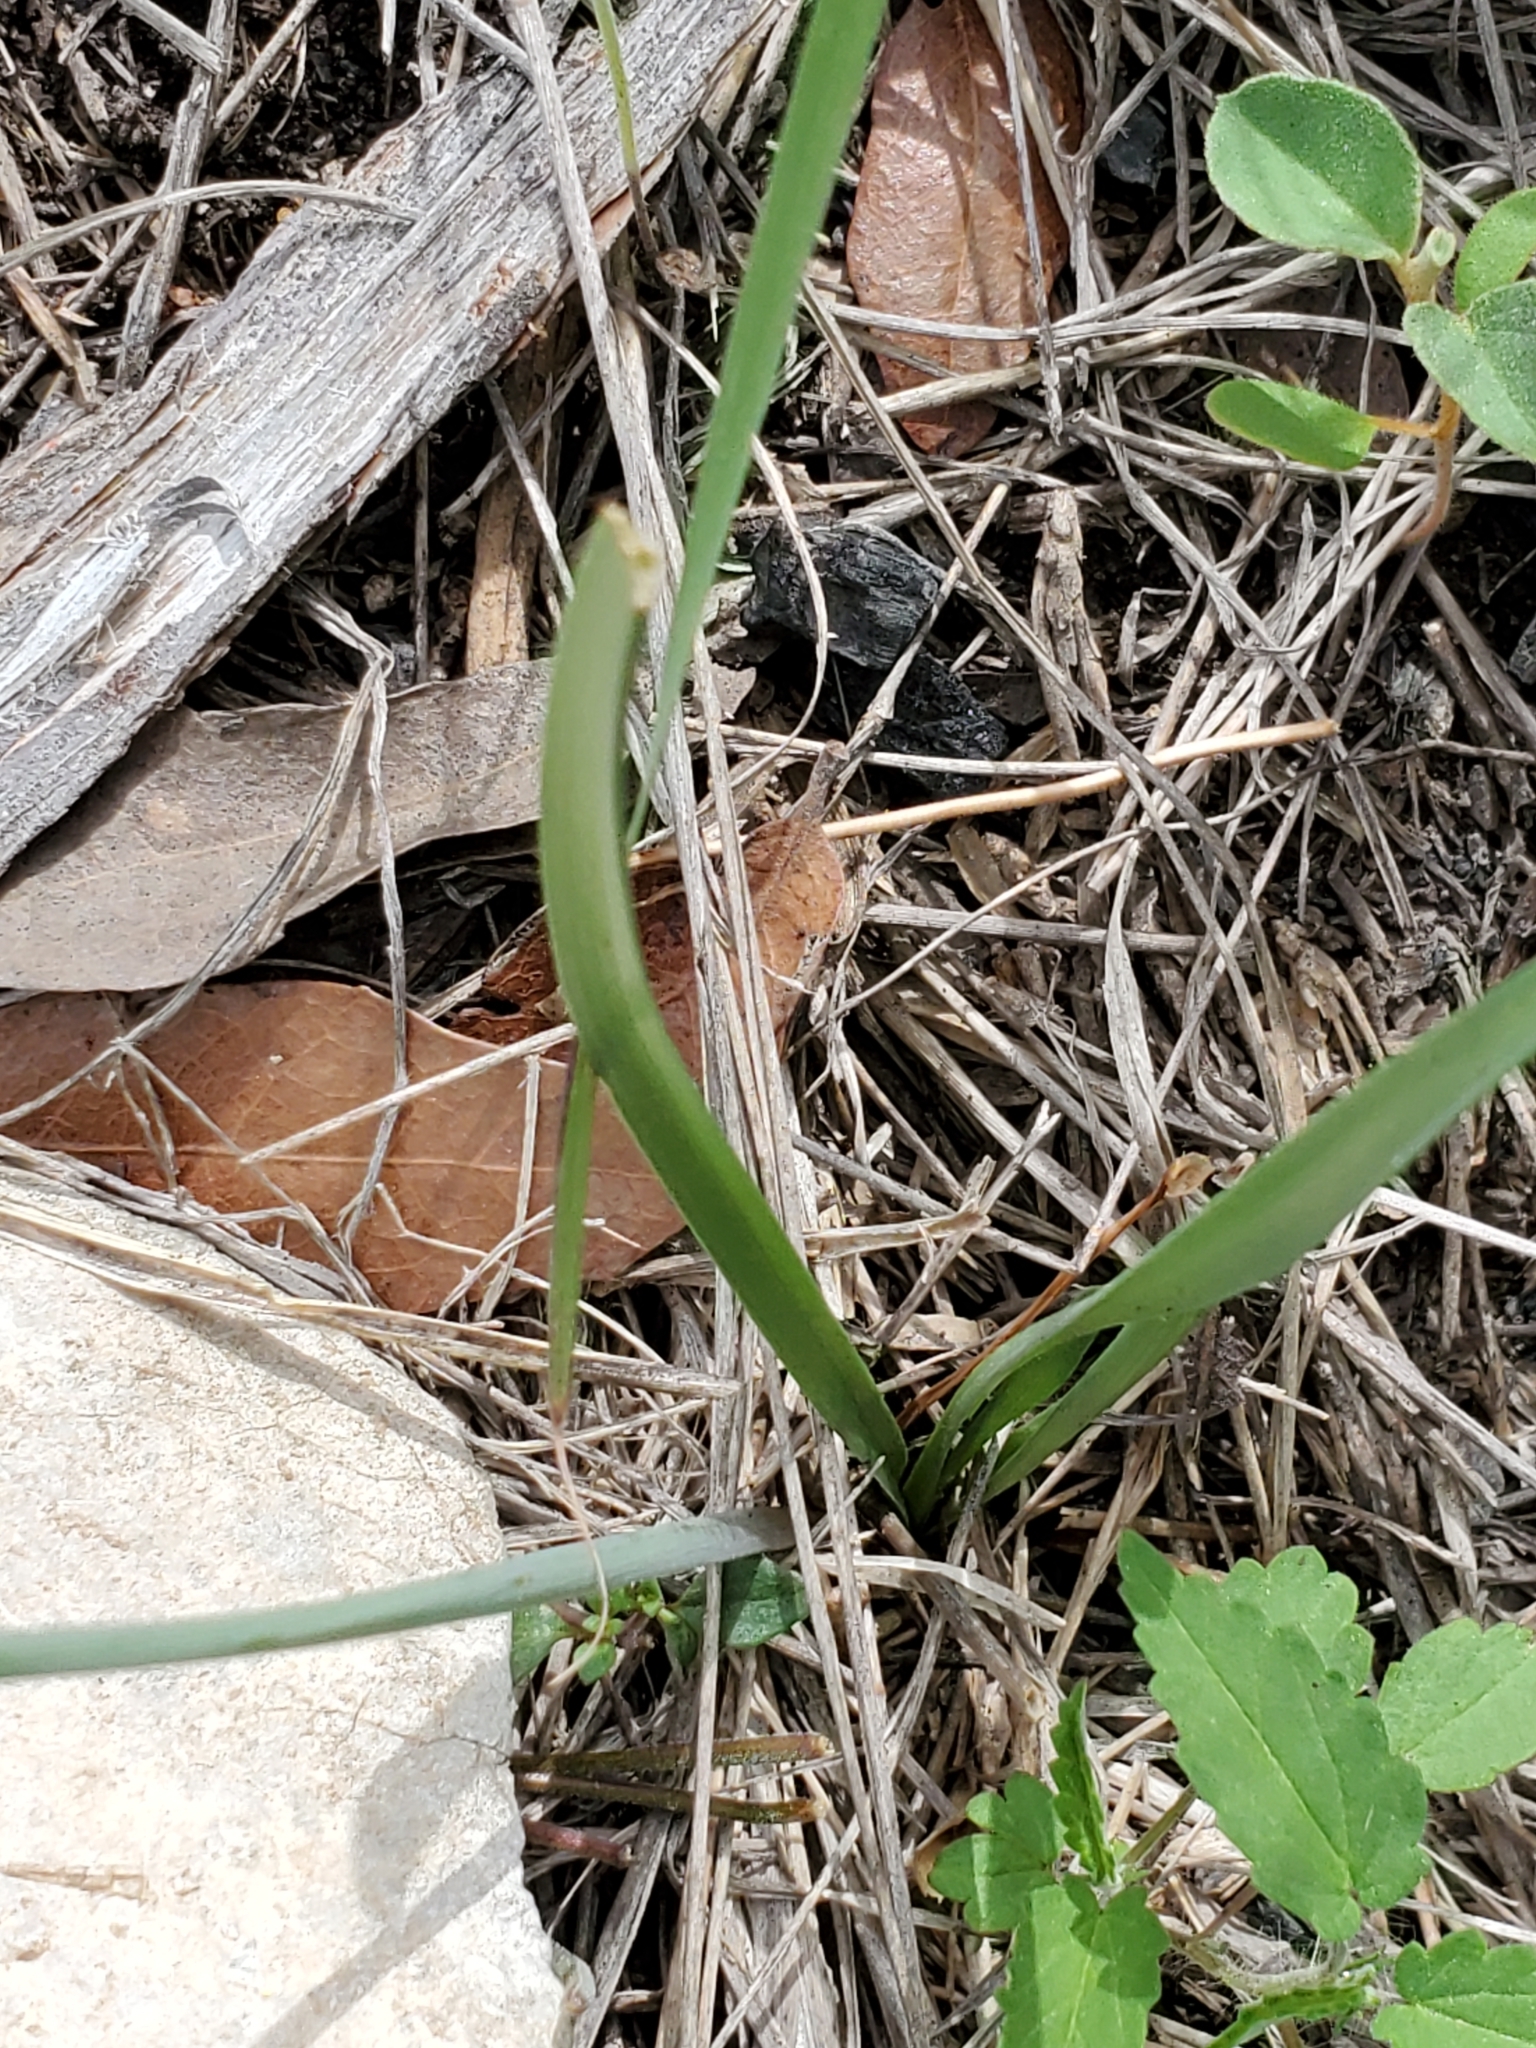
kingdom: Plantae
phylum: Tracheophyta
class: Liliopsida
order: Asparagales
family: Amaryllidaceae
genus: Nothoscordum
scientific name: Nothoscordum bivalve
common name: Crow-poison
